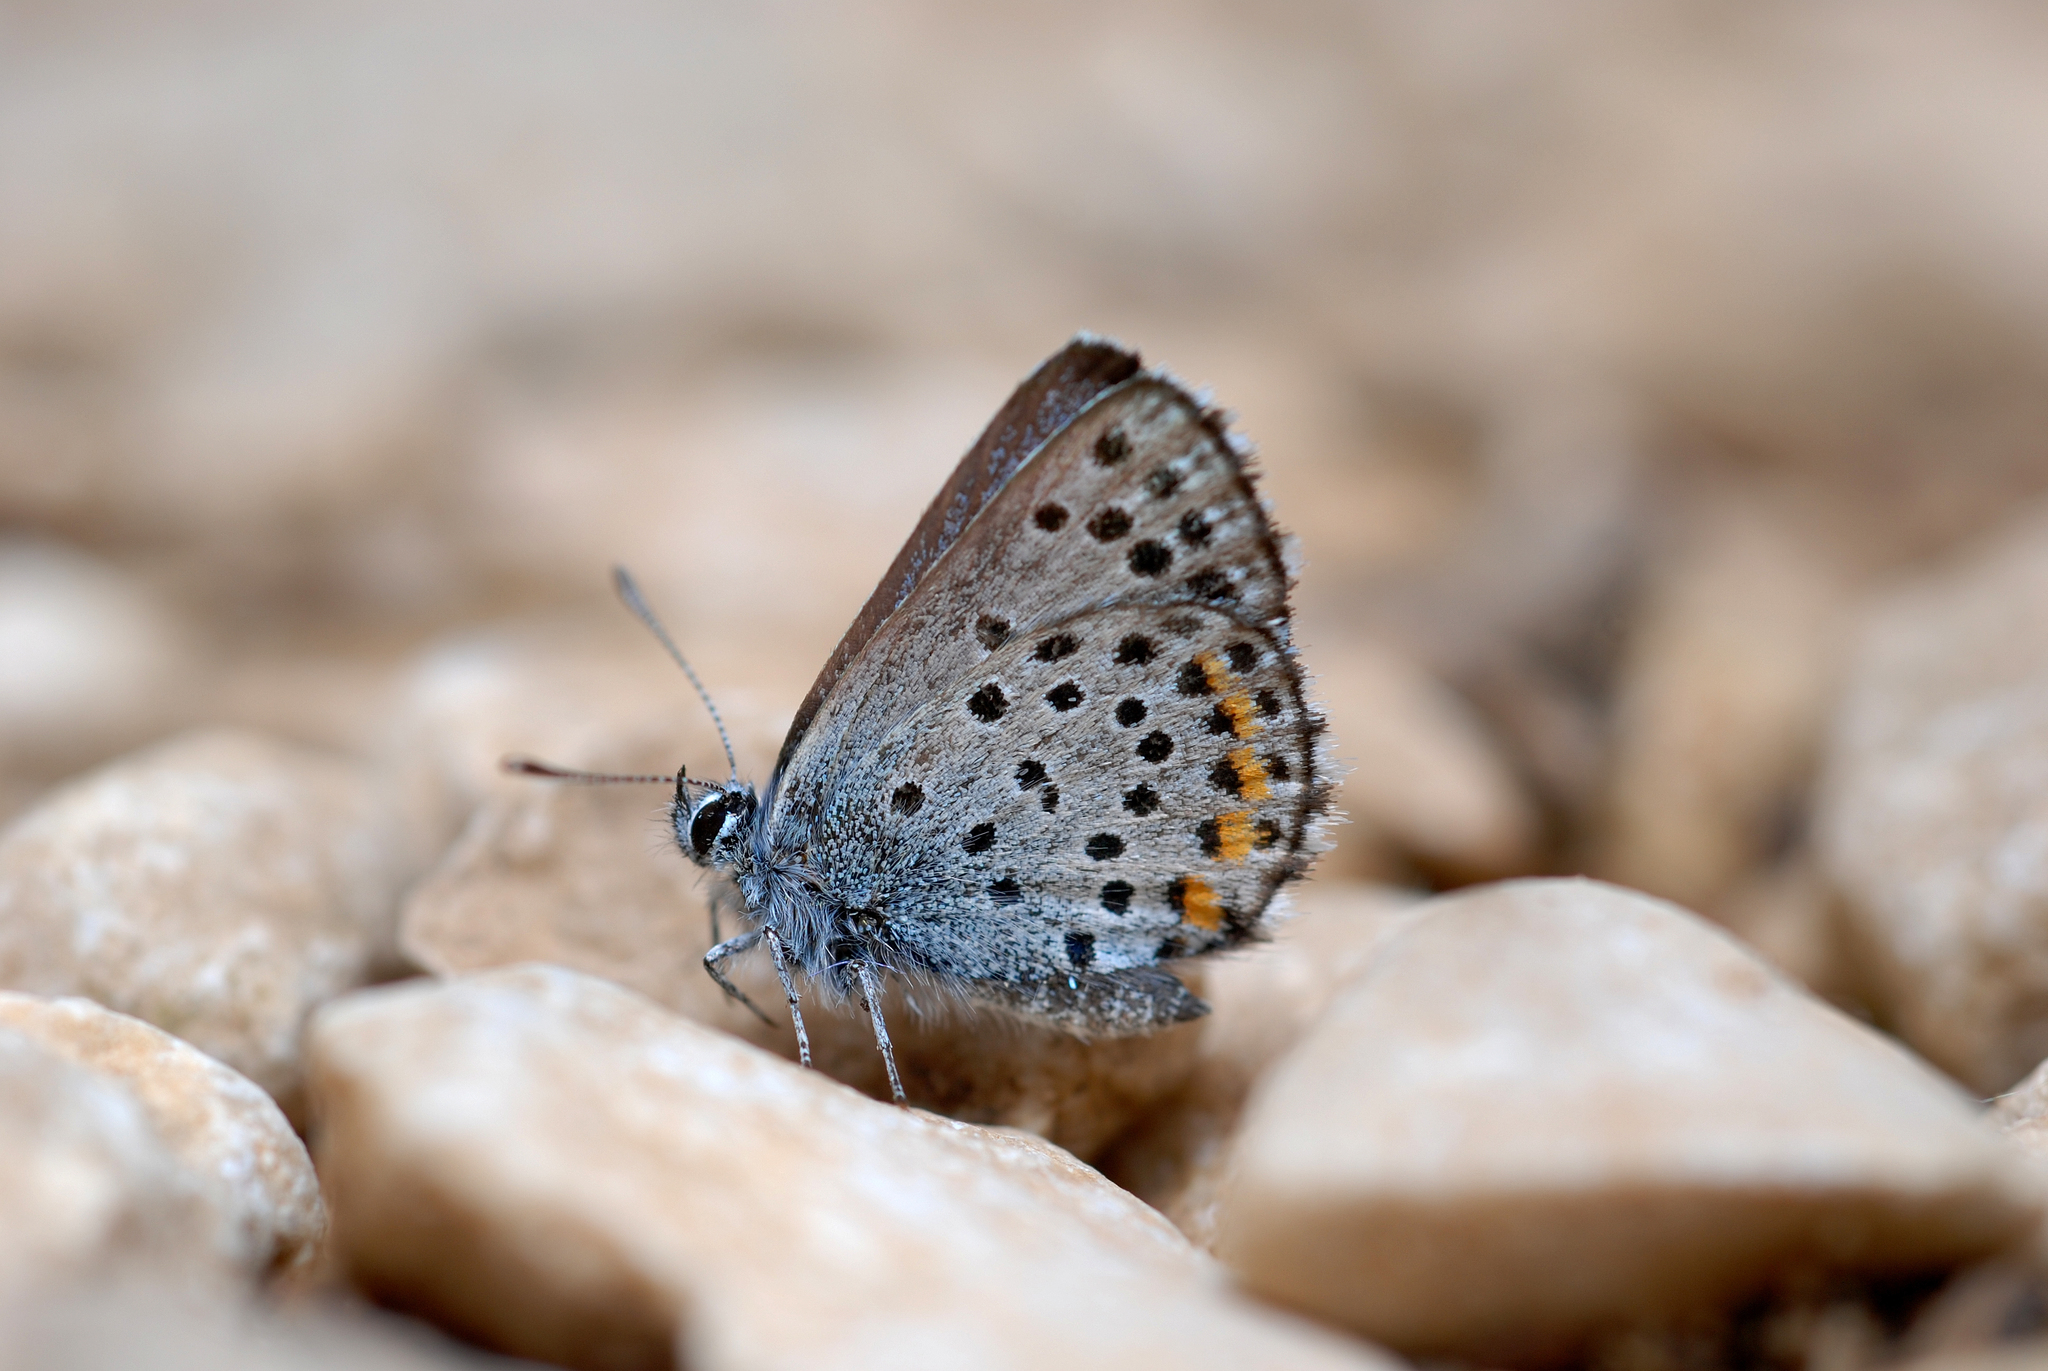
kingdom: Animalia
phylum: Arthropoda
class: Insecta
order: Lepidoptera
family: Lycaenidae
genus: Pseudophilotes
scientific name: Pseudophilotes baton
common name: Baton blue
